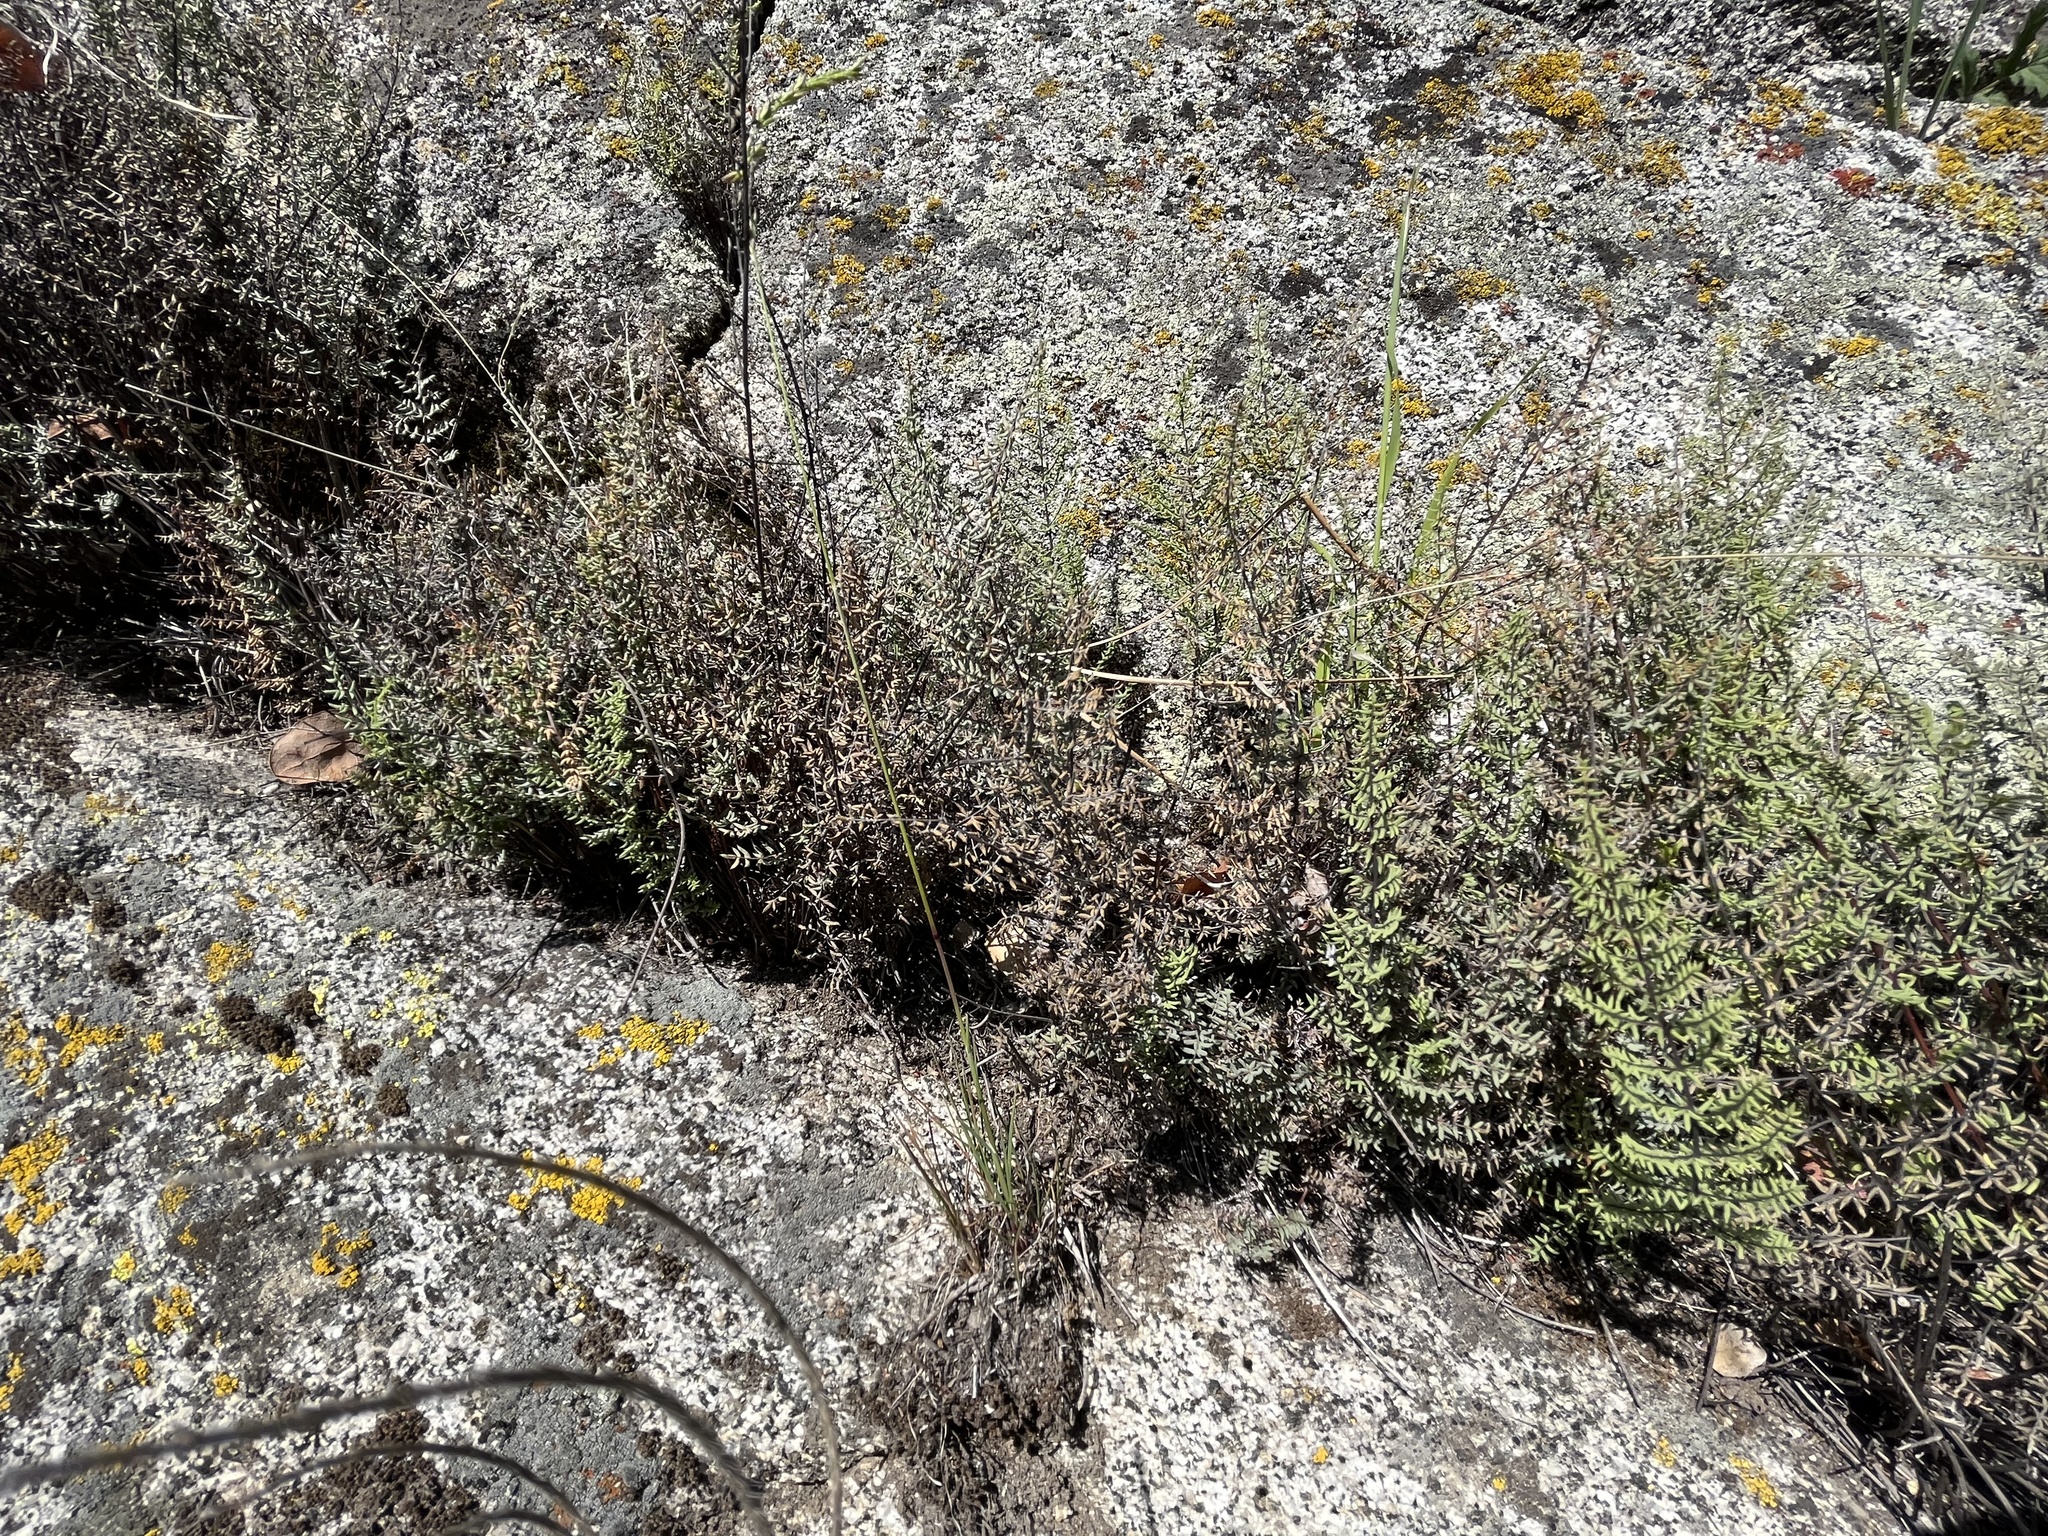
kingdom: Plantae
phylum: Tracheophyta
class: Polypodiopsida
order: Polypodiales
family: Pteridaceae
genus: Pellaea
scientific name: Pellaea mucronata
